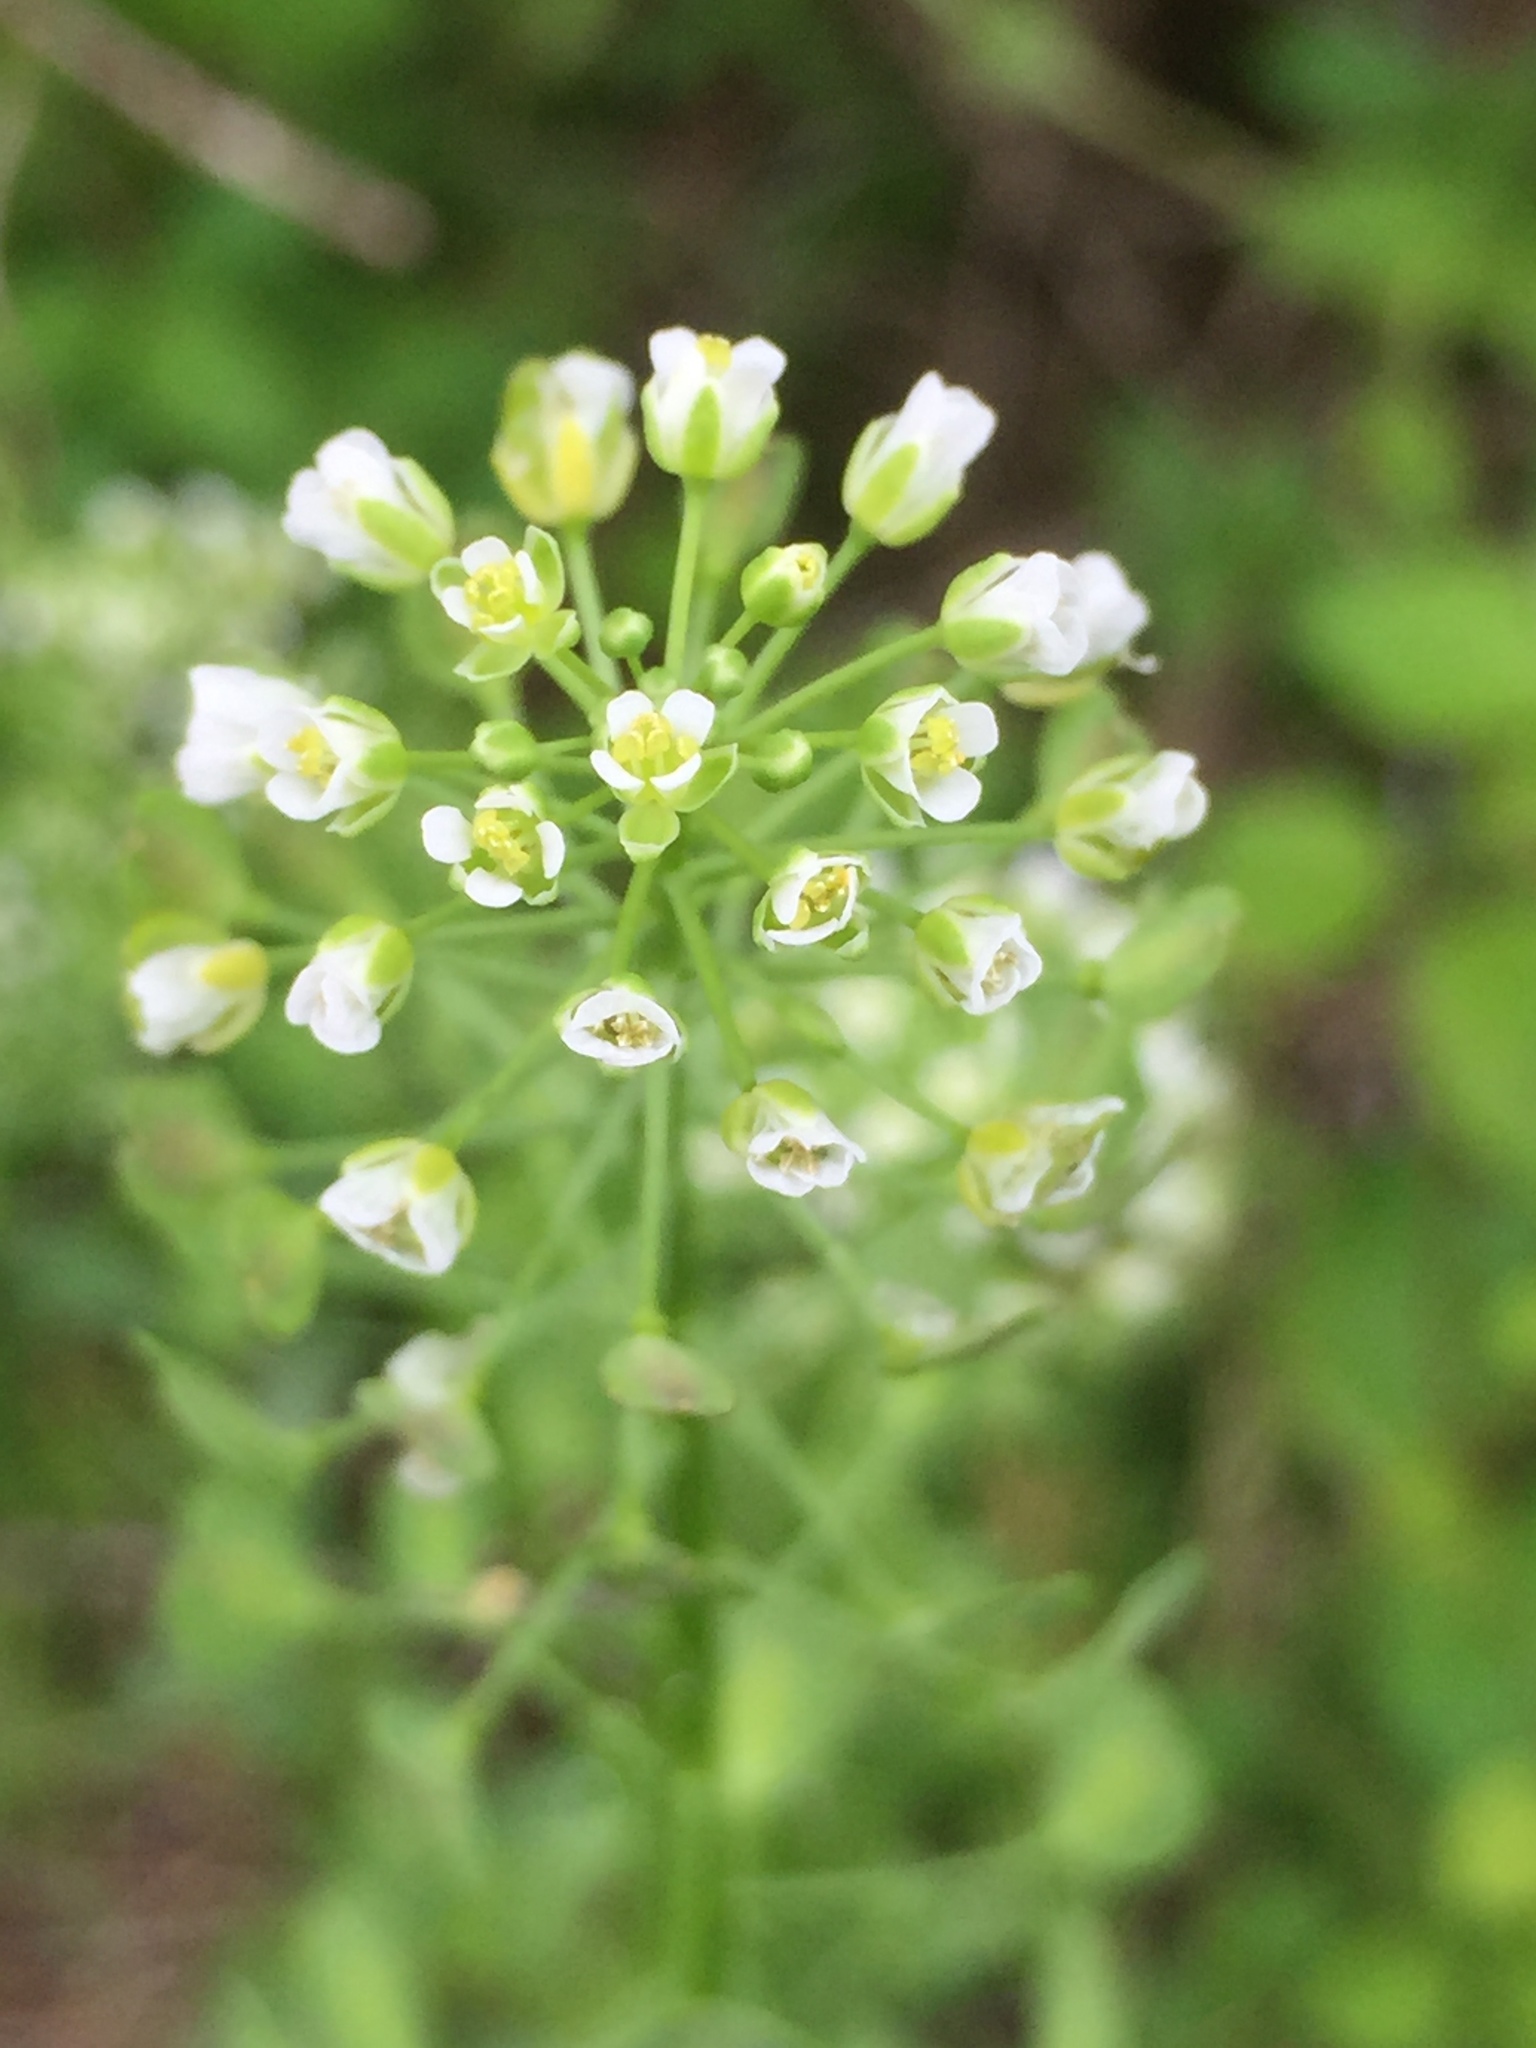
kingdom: Plantae
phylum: Tracheophyta
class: Magnoliopsida
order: Brassicales
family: Brassicaceae
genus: Thlaspi
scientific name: Thlaspi arvense
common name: Field pennycress
